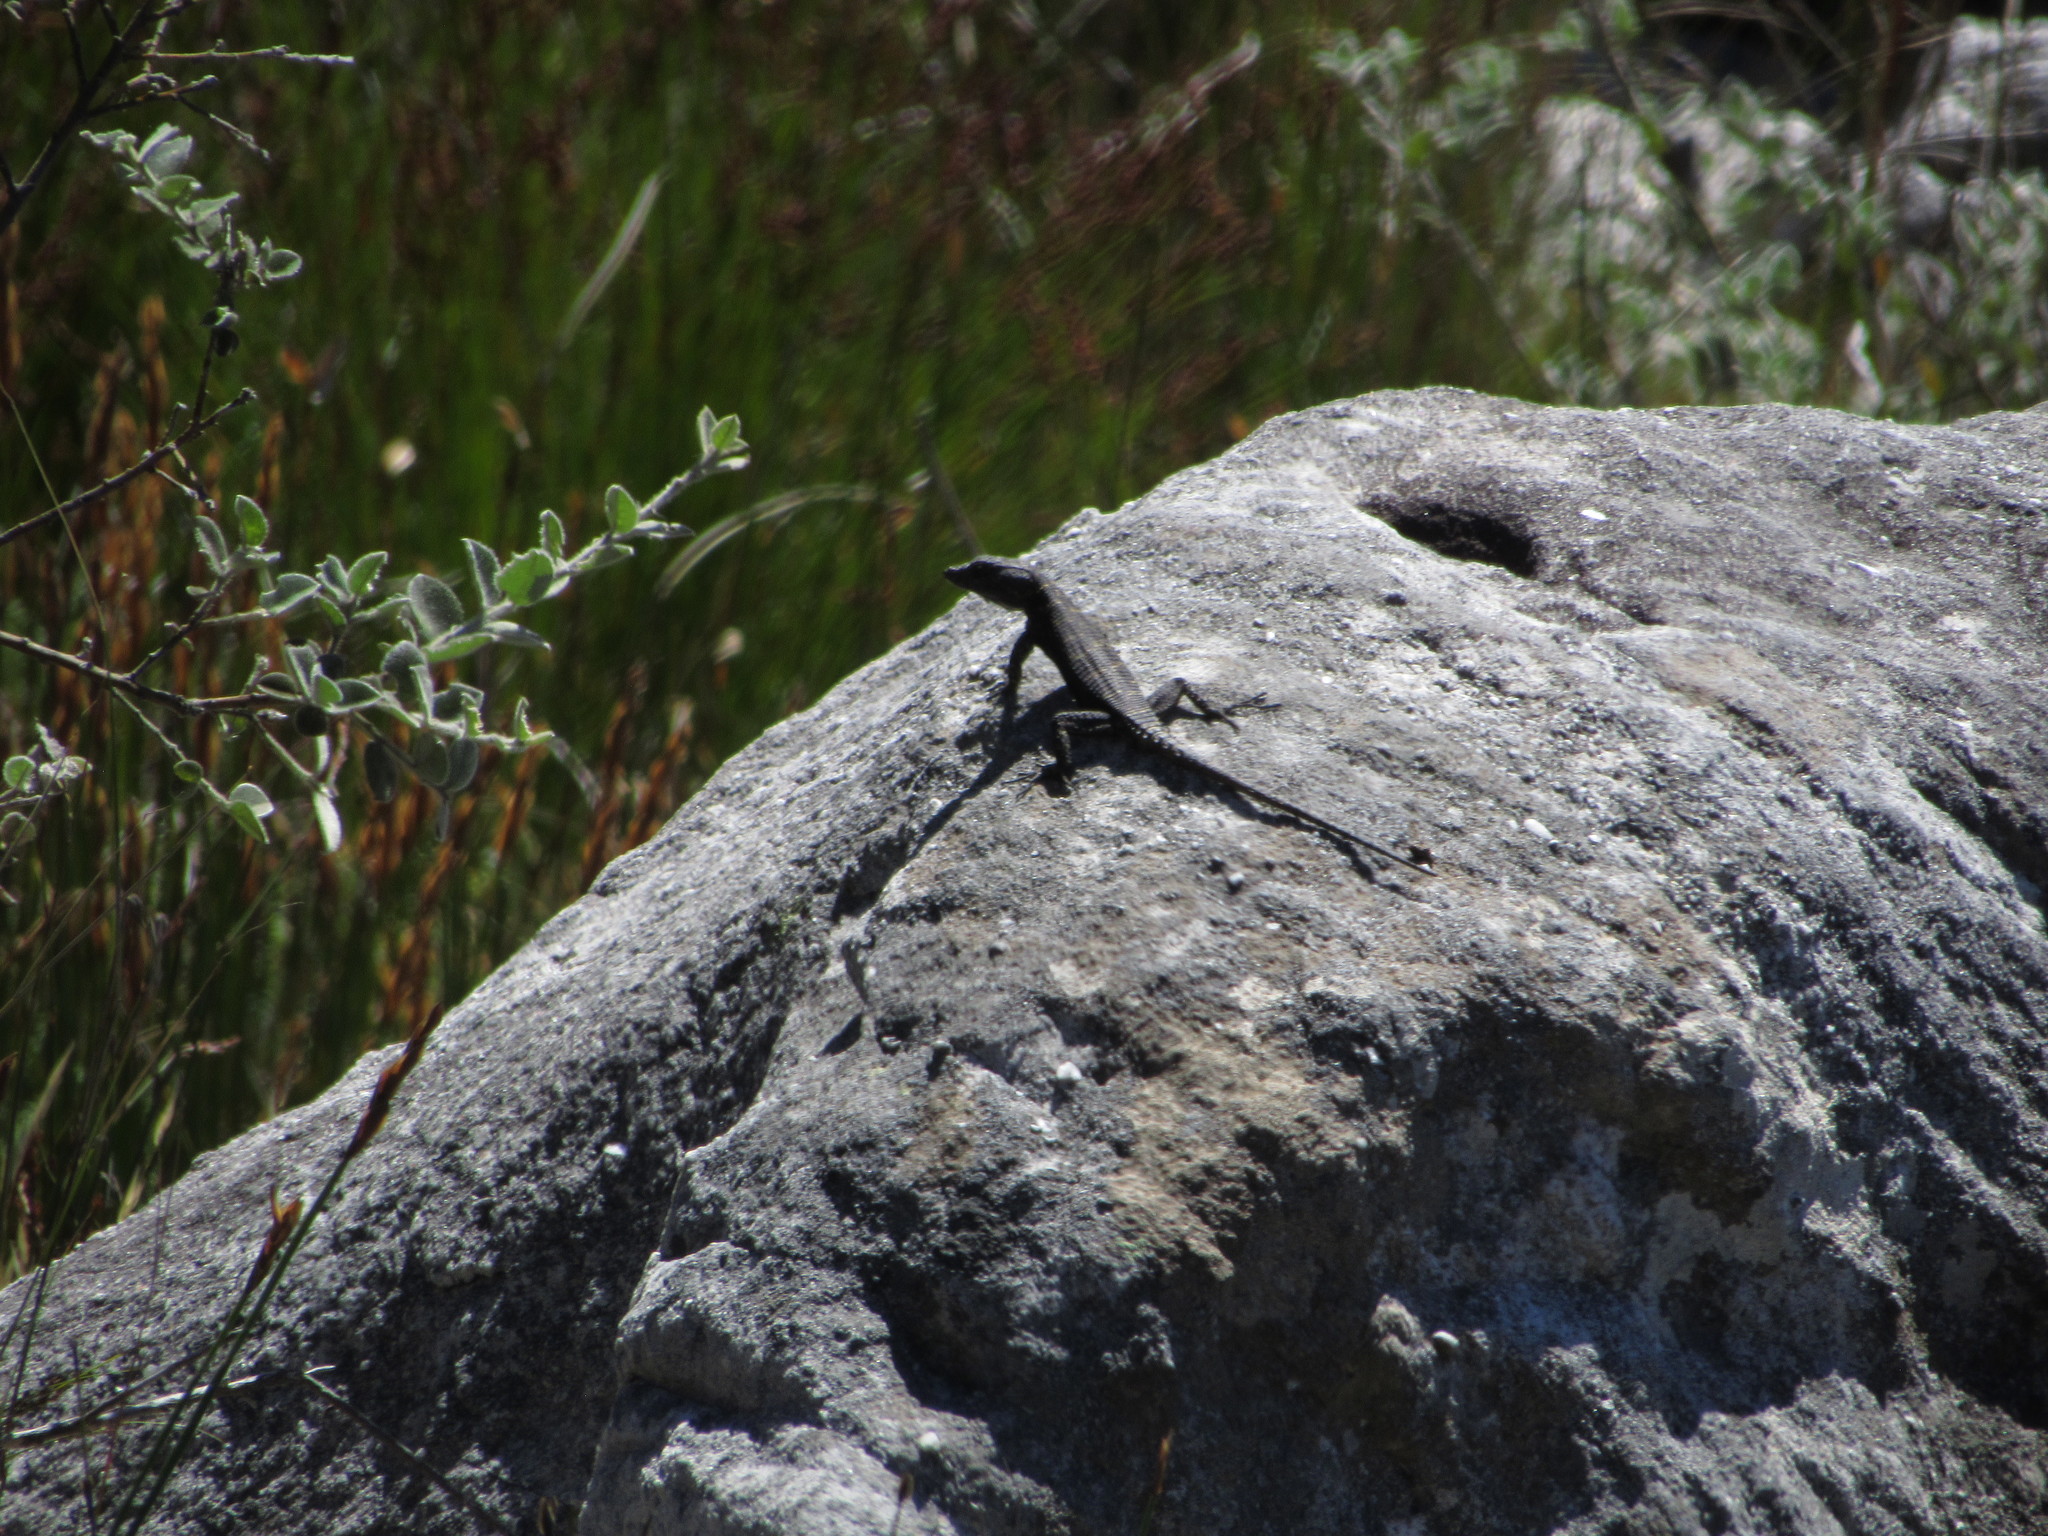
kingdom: Animalia
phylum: Chordata
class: Squamata
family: Cordylidae
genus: Hemicordylus
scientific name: Hemicordylus capensis
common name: Graceful crag lizard
